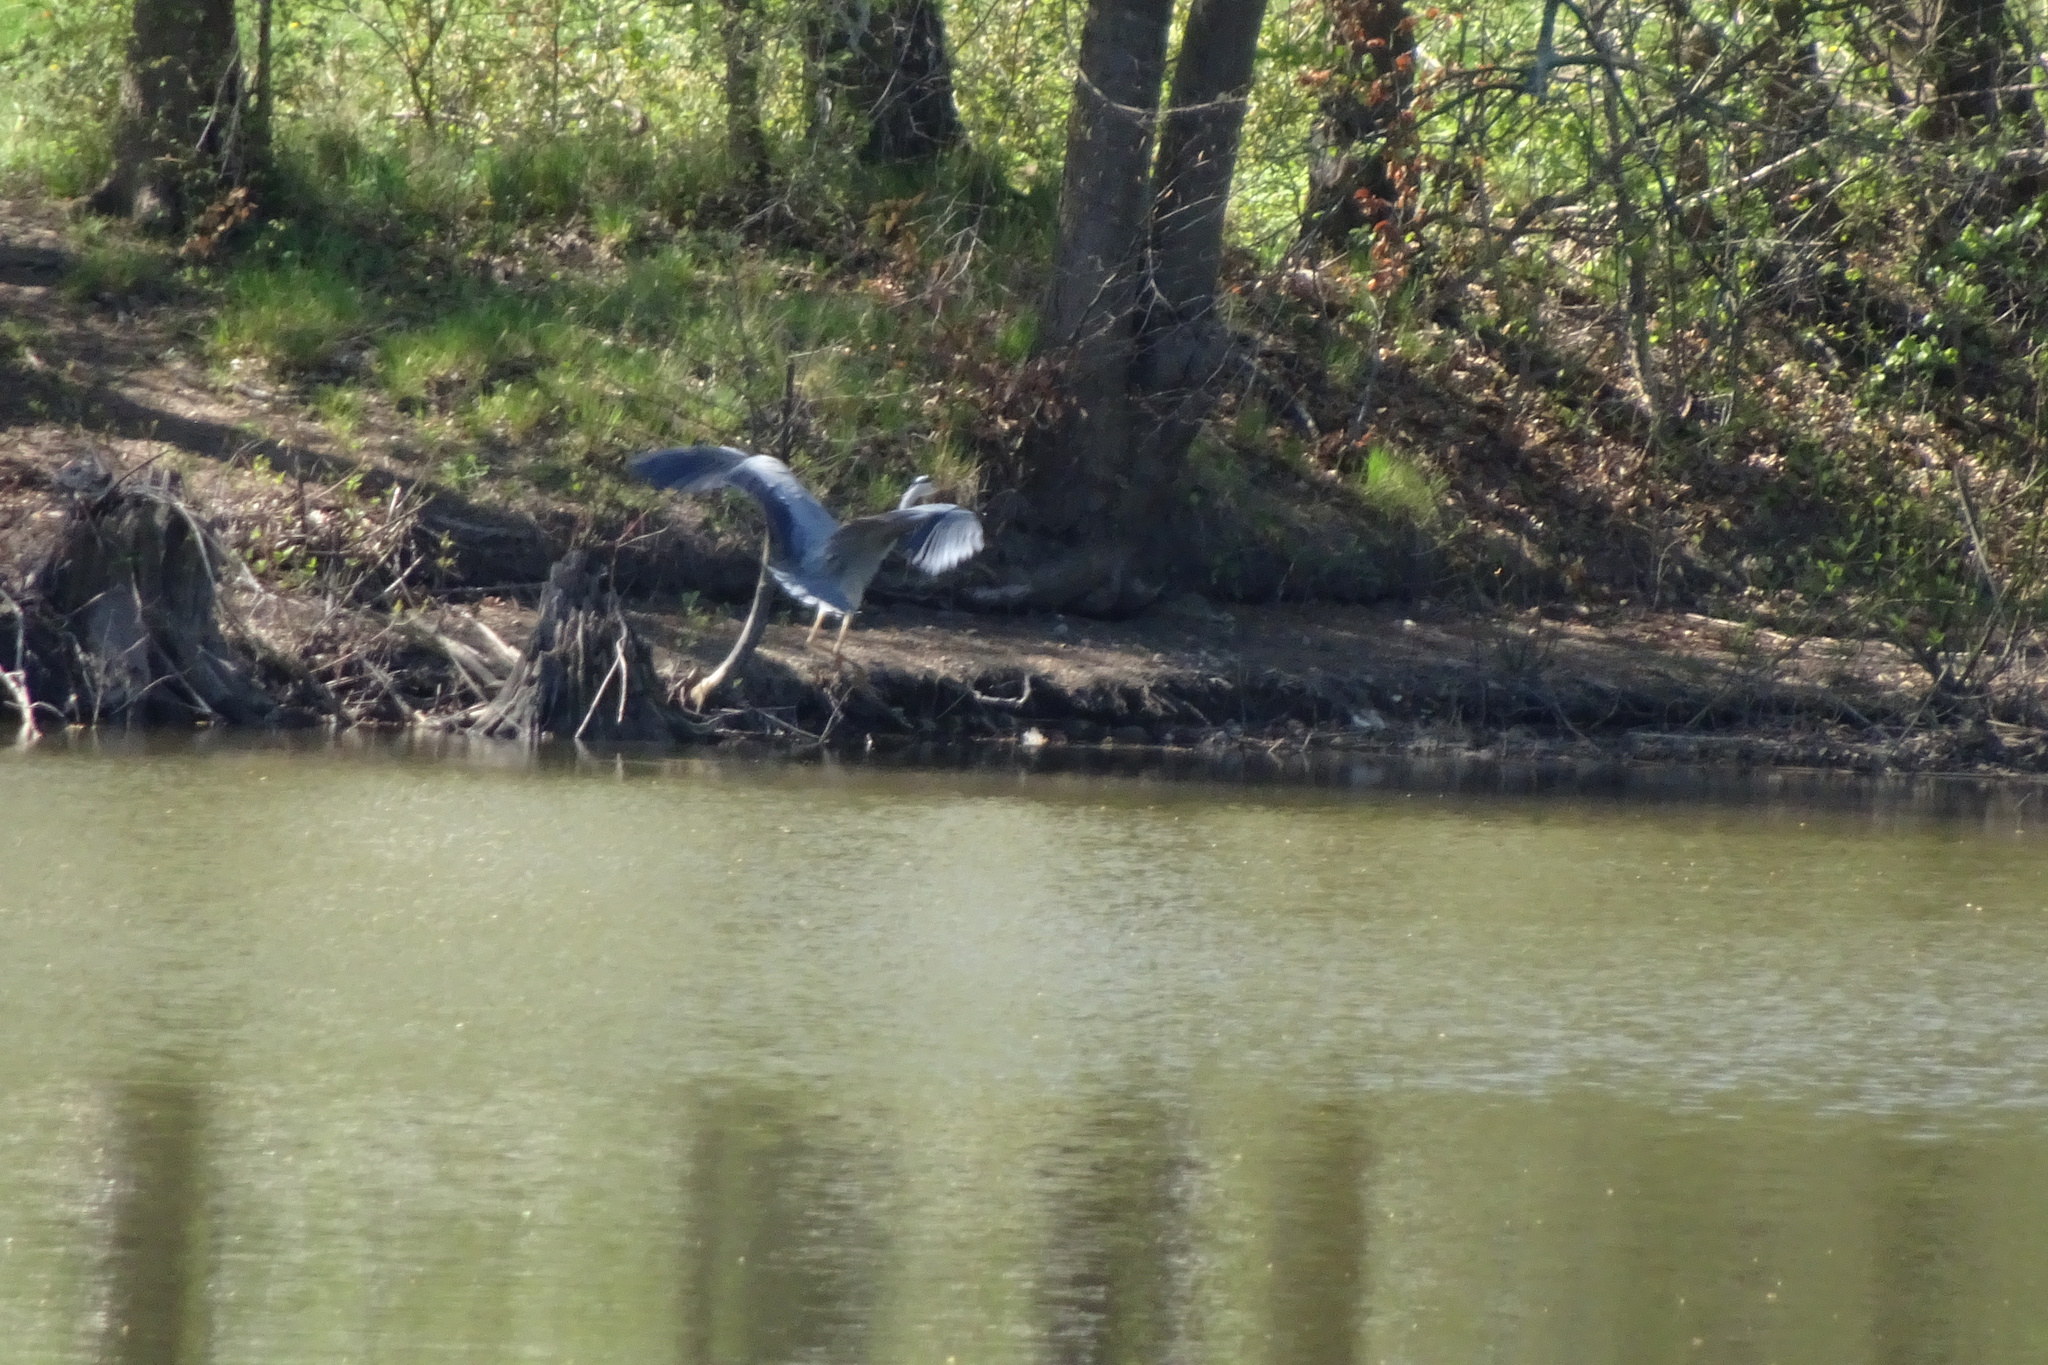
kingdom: Animalia
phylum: Chordata
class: Aves
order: Pelecaniformes
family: Ardeidae
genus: Ardea
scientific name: Ardea cinerea
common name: Grey heron
